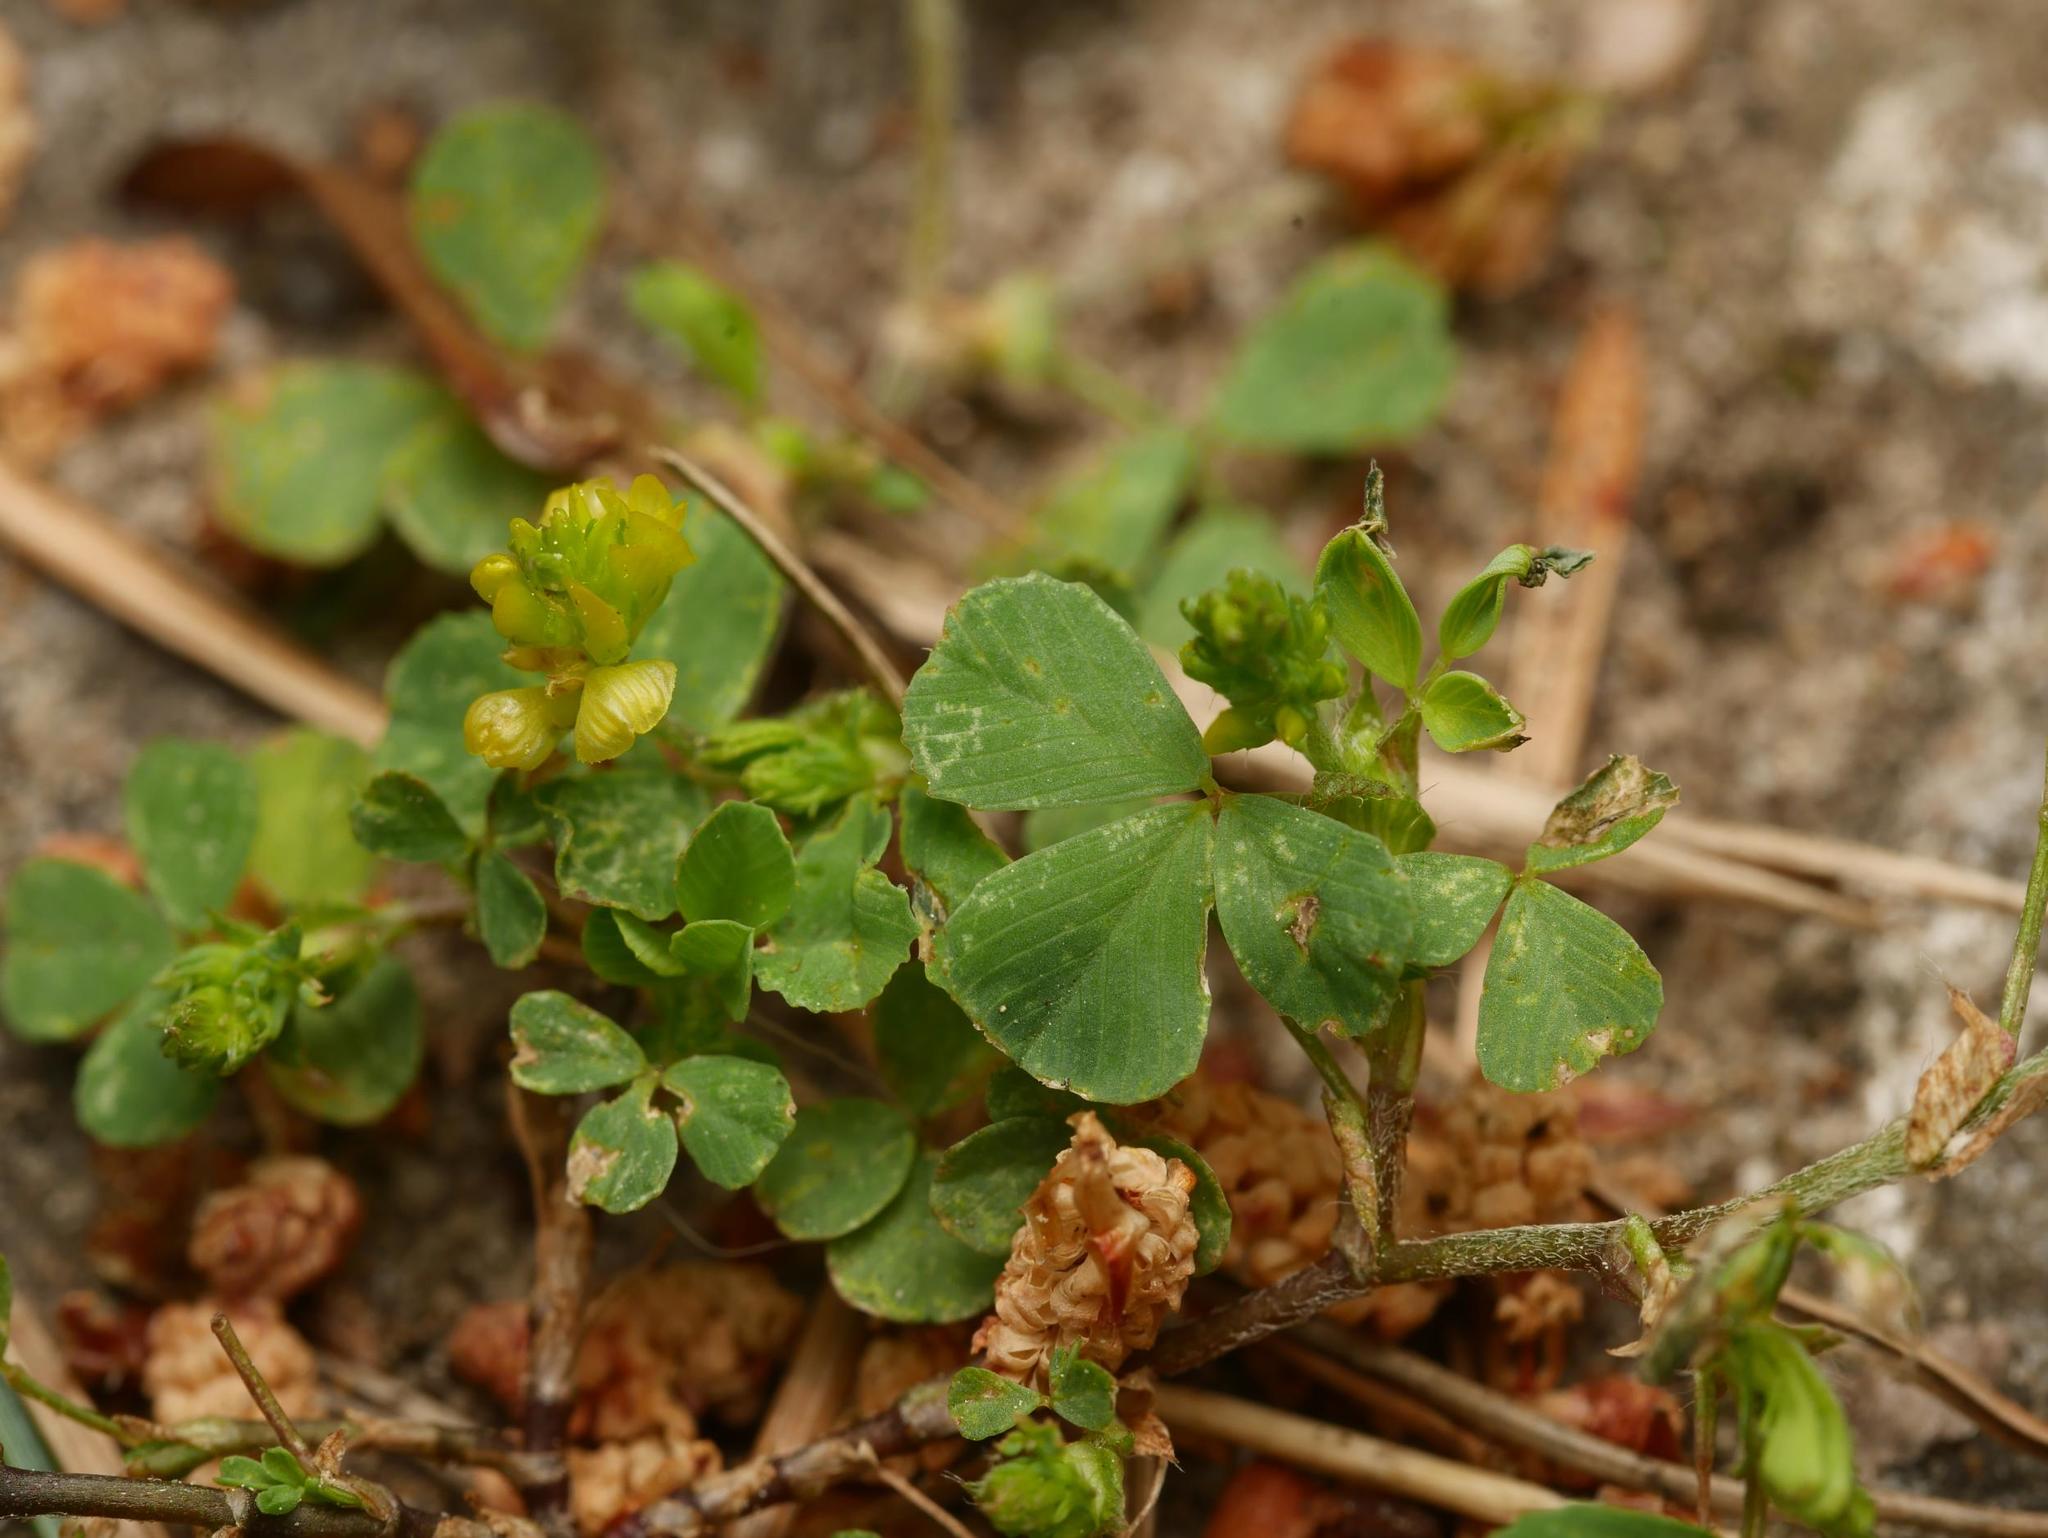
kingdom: Plantae
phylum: Tracheophyta
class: Magnoliopsida
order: Fabales
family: Fabaceae
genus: Trifolium
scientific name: Trifolium campestre
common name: Field clover
